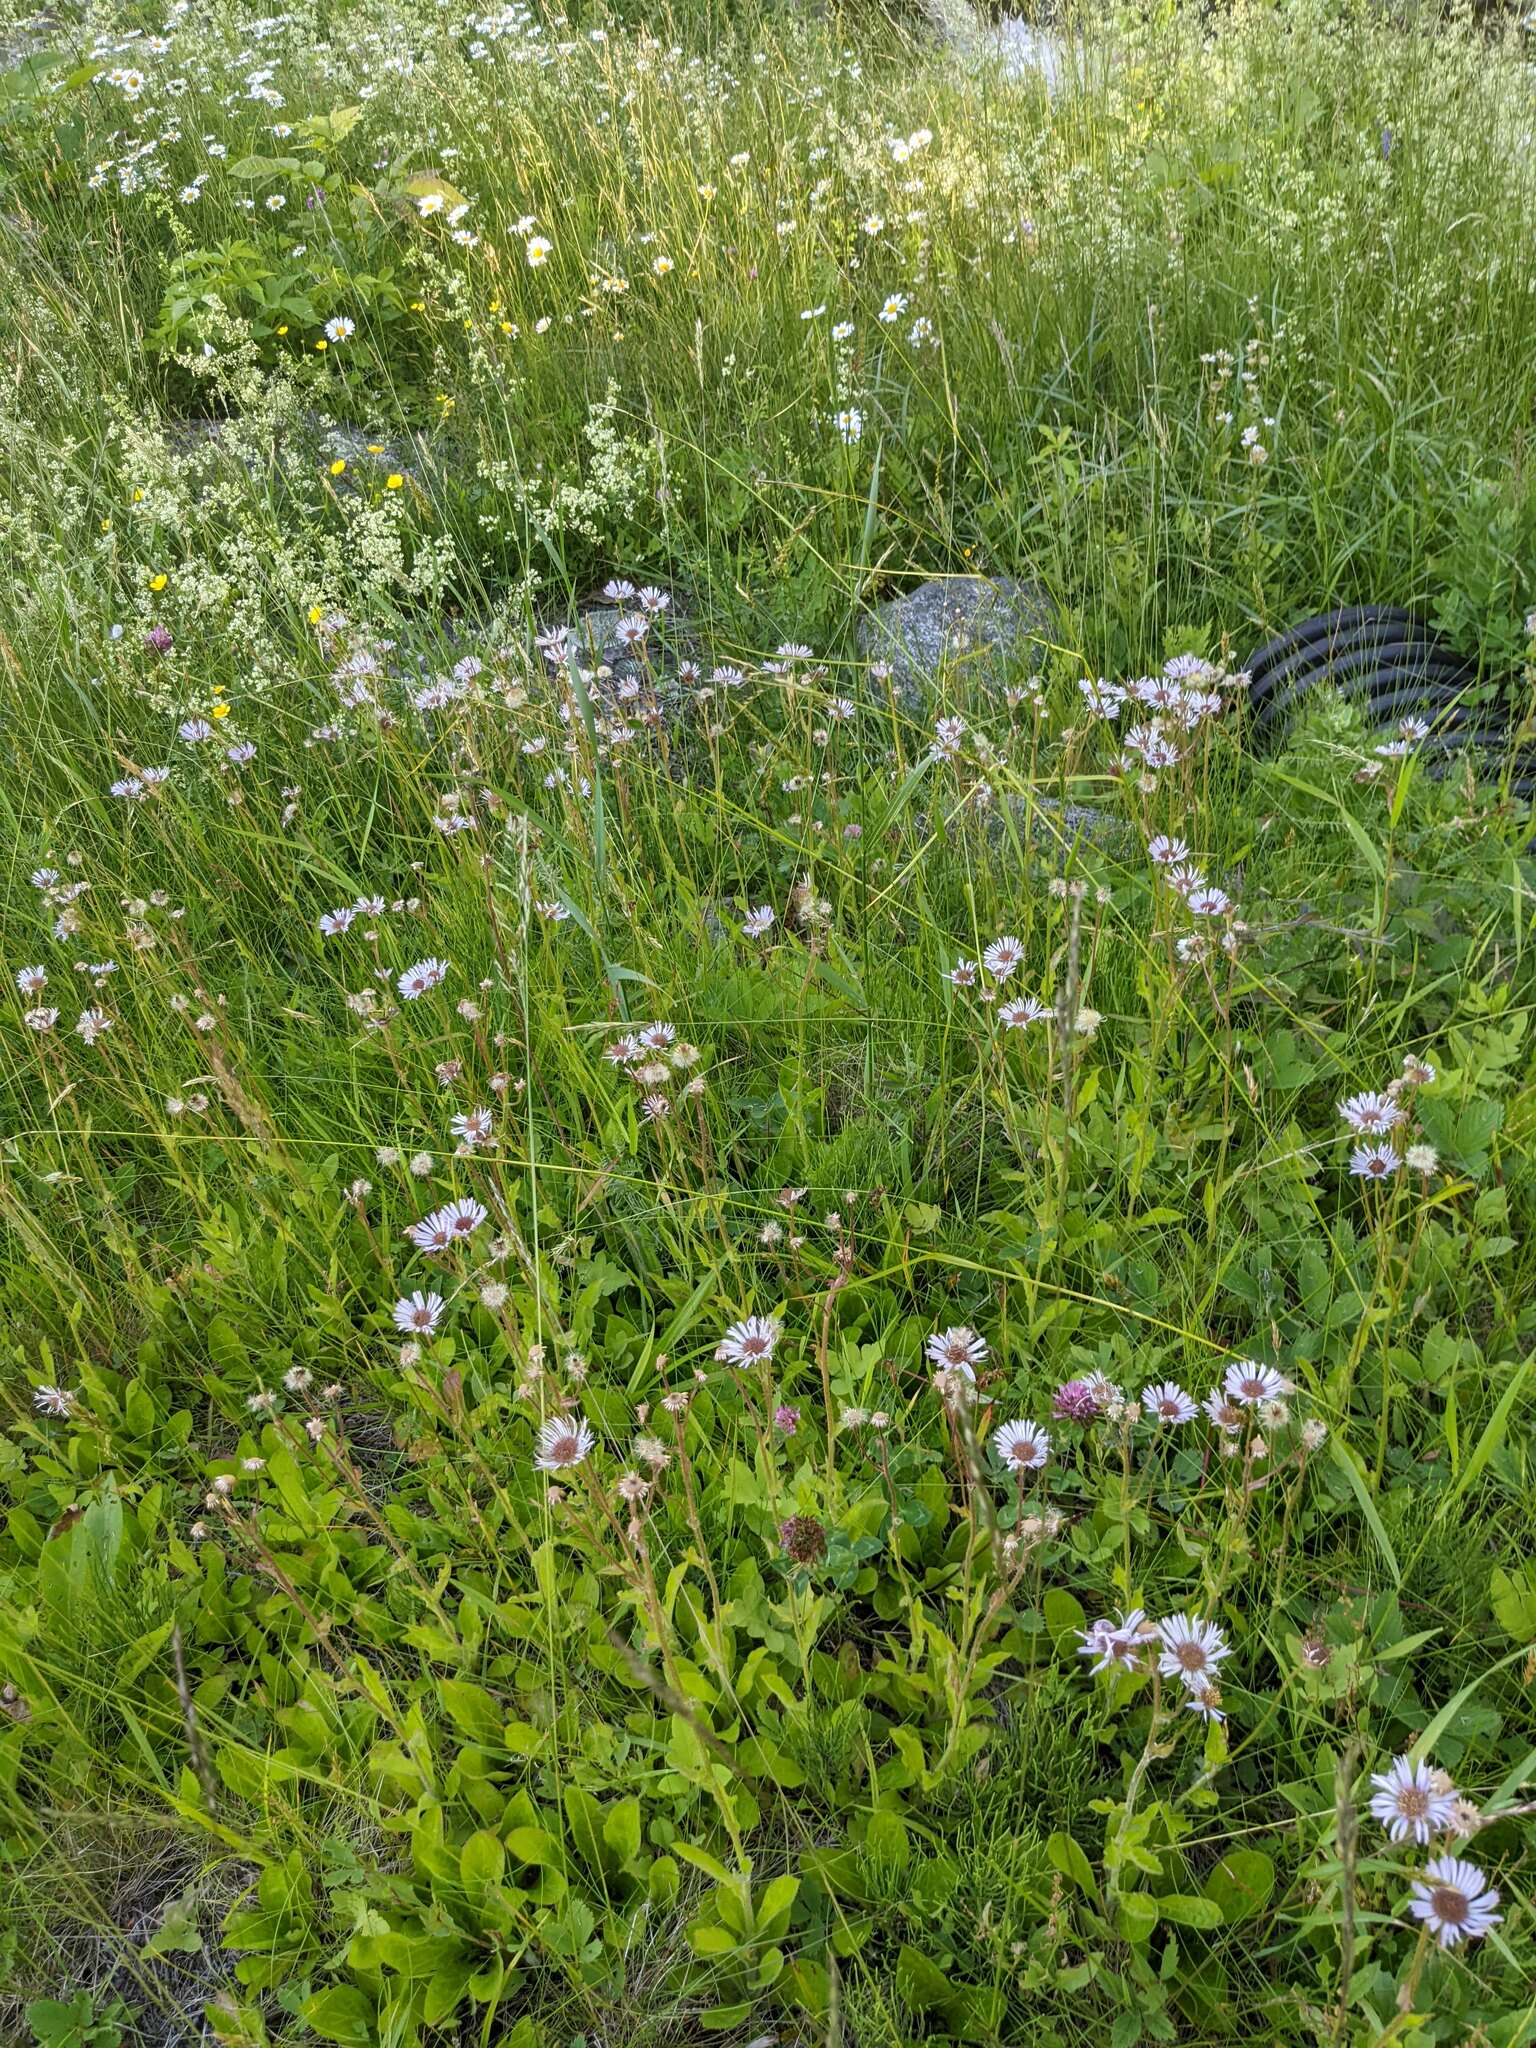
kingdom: Plantae
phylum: Tracheophyta
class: Magnoliopsida
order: Asterales
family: Asteraceae
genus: Erigeron
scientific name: Erigeron pulchellus
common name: Hairy fleabane
